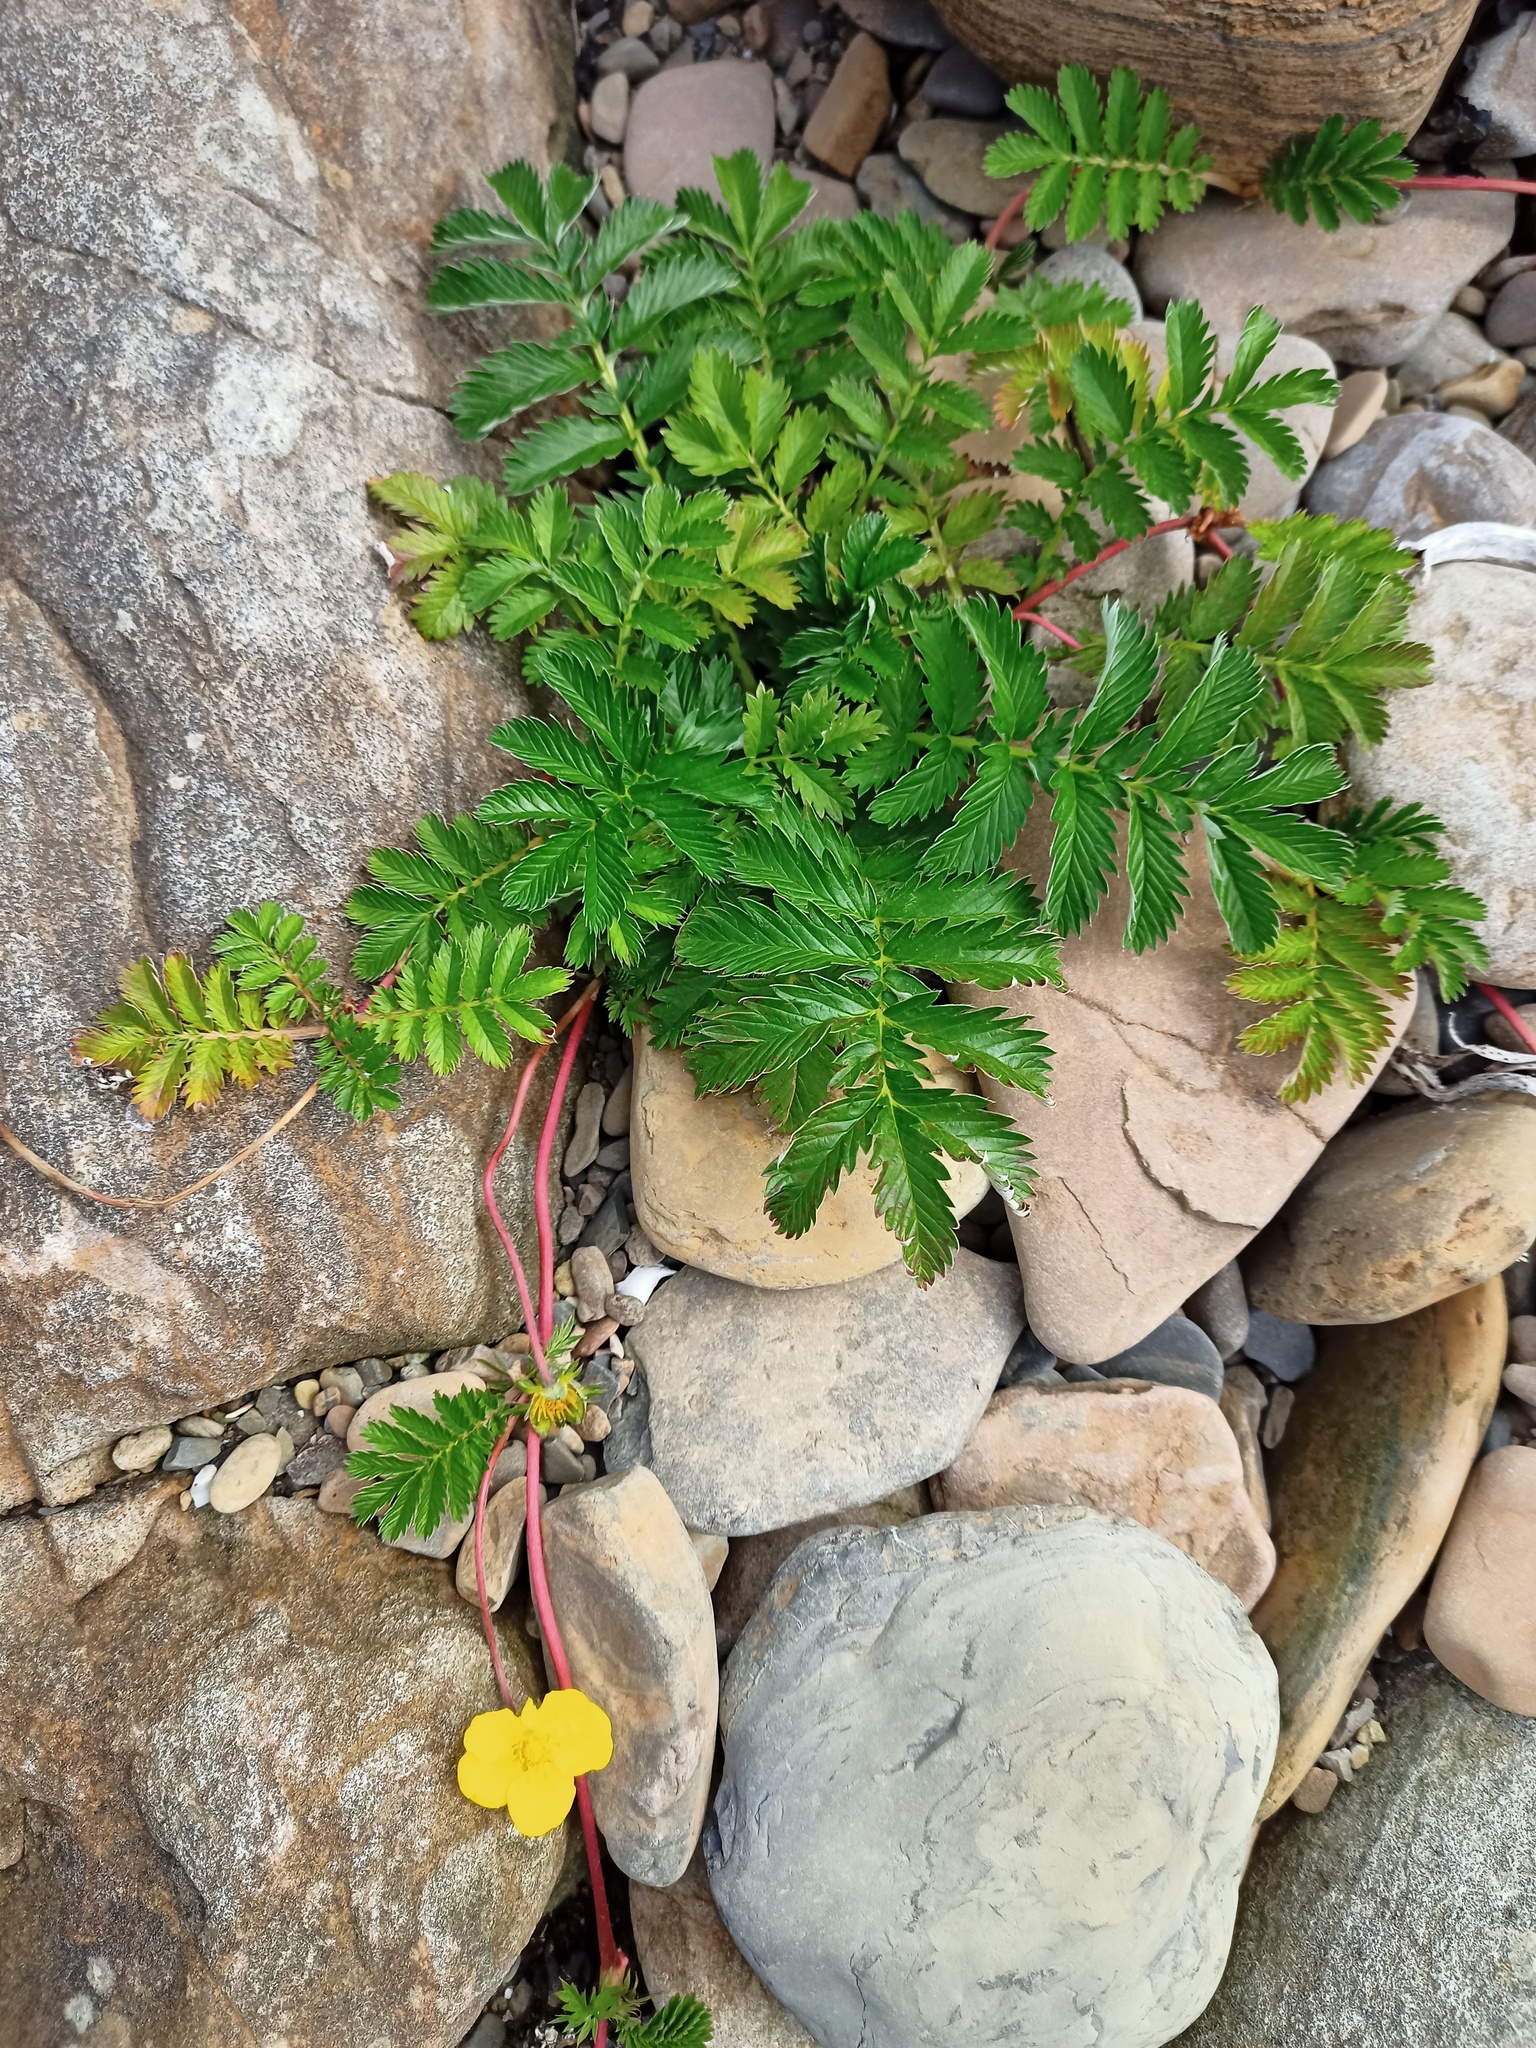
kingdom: Plantae
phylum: Tracheophyta
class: Magnoliopsida
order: Rosales
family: Rosaceae
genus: Argentina
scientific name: Argentina anserina
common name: Common silverweed
